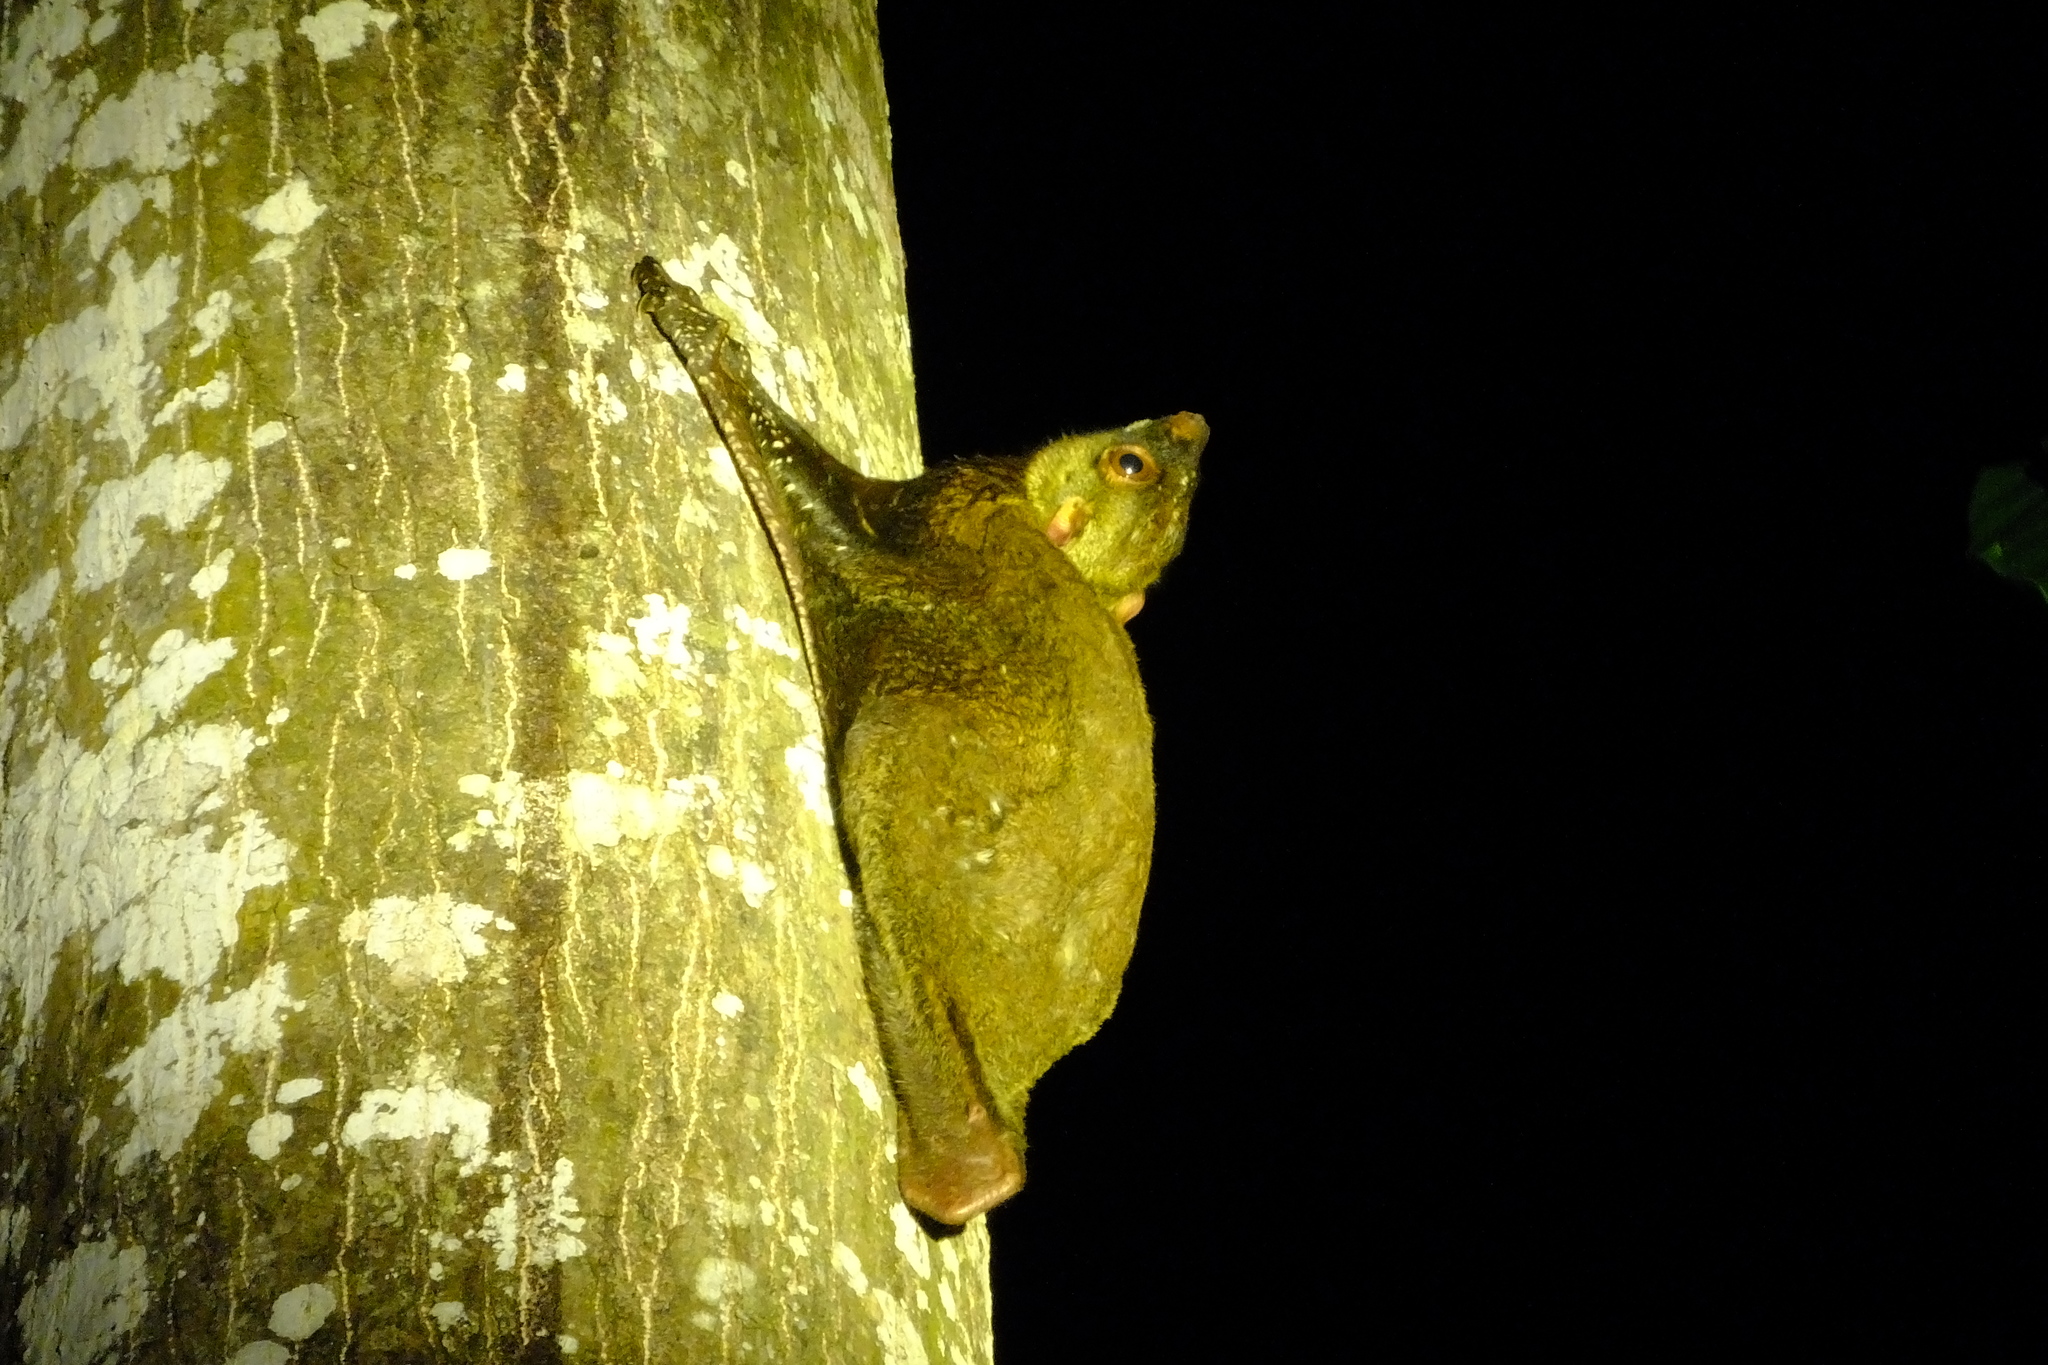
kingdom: Animalia
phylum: Chordata
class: Mammalia
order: Dermoptera
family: Cynocephalidae
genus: Galeopterus
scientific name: Galeopterus variegatus
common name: Sunda flying lemur
